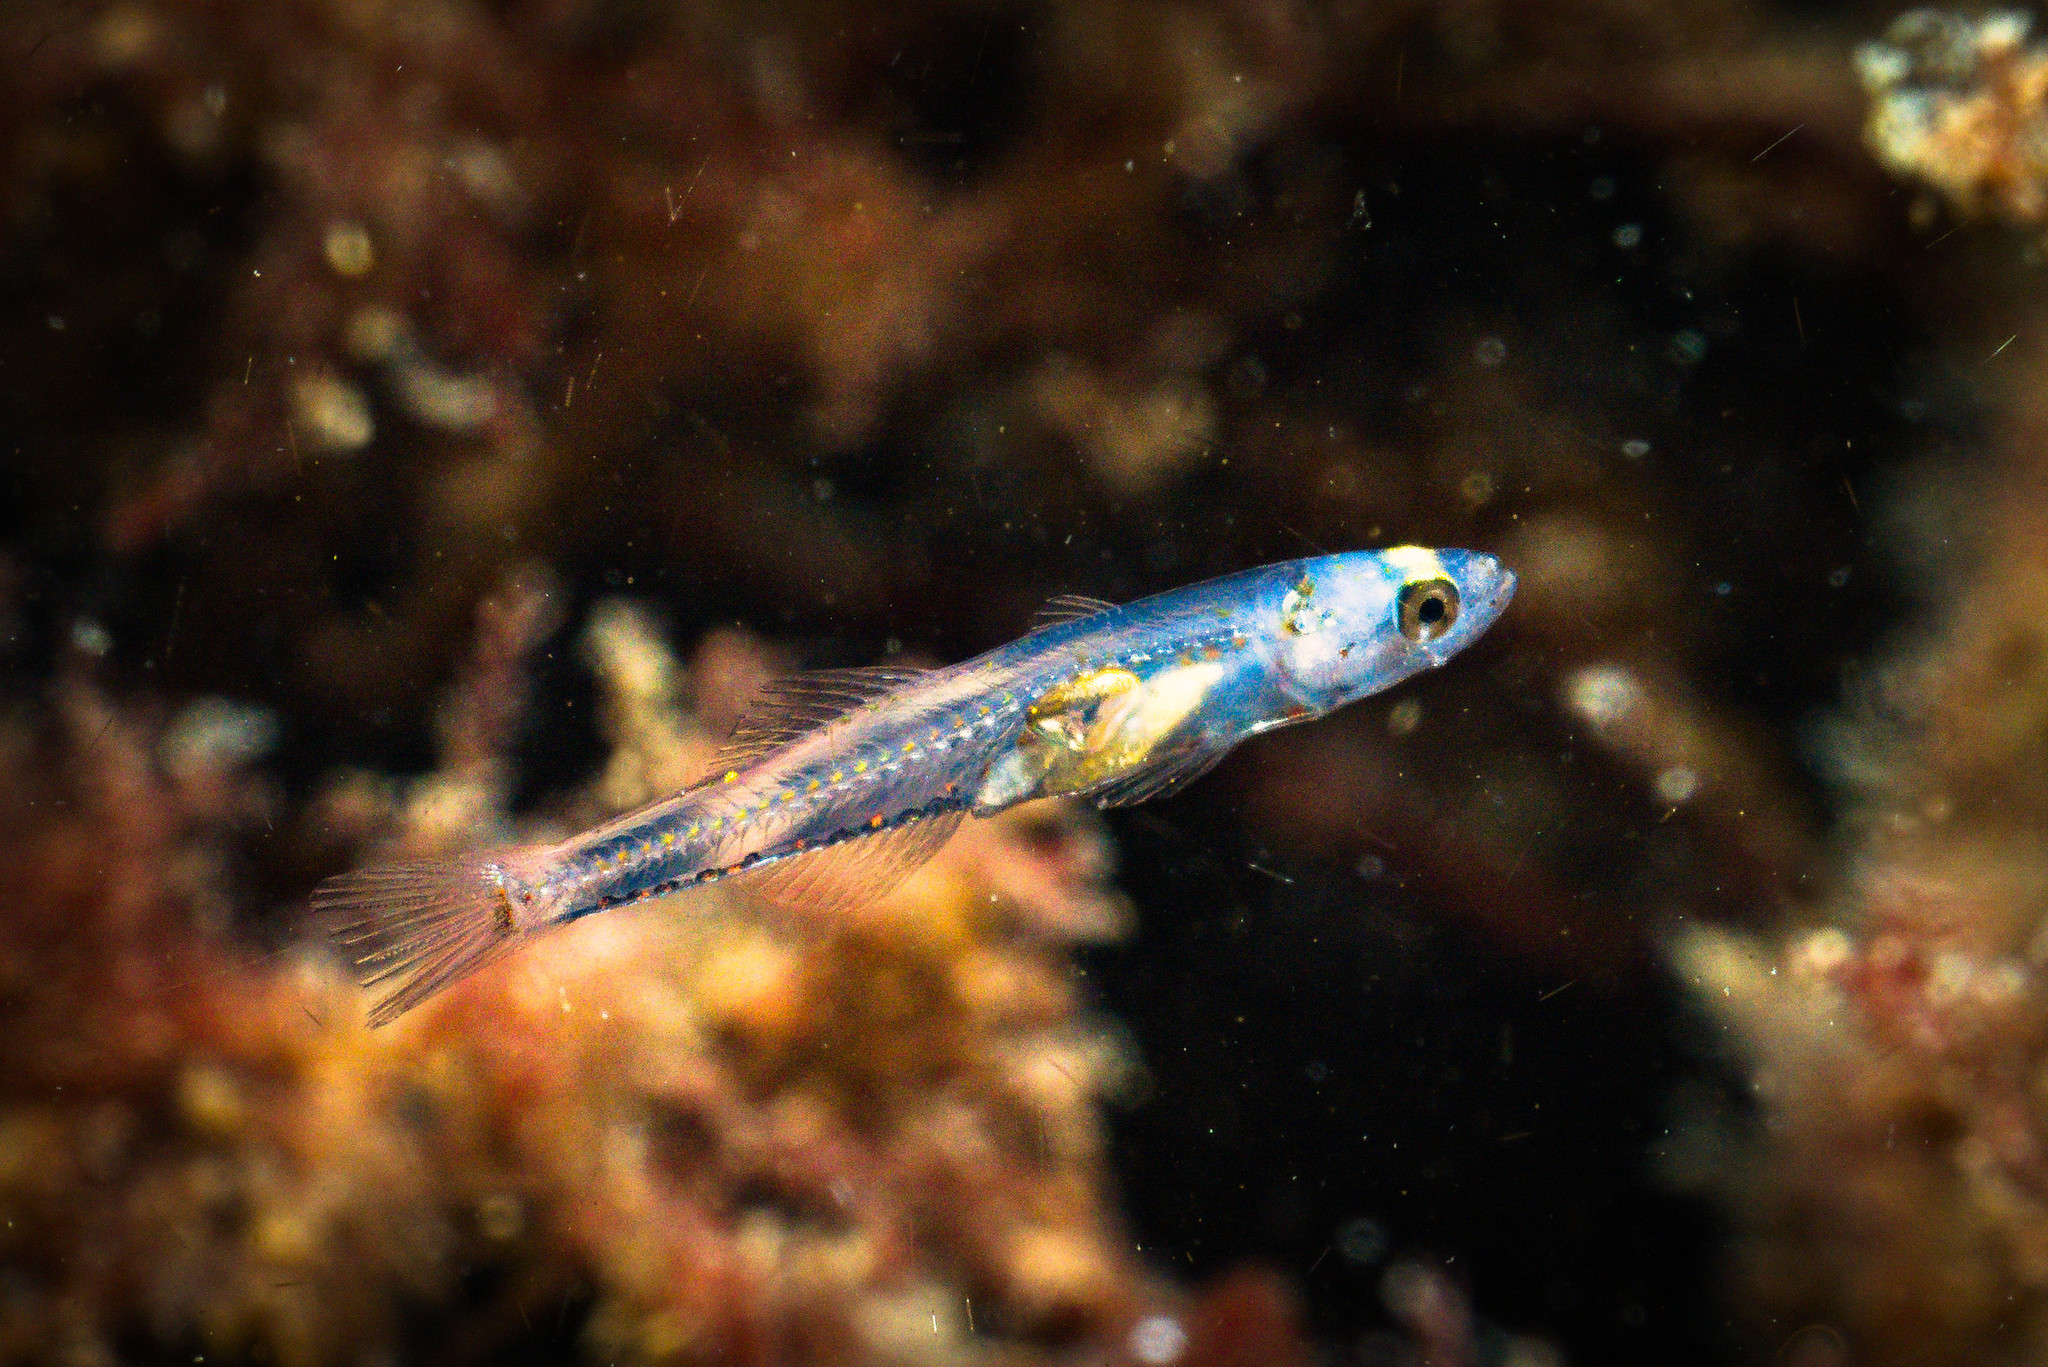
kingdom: Animalia
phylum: Chordata
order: Perciformes
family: Gobiidae
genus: Aphia
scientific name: Aphia minuta
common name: Transparent goby
